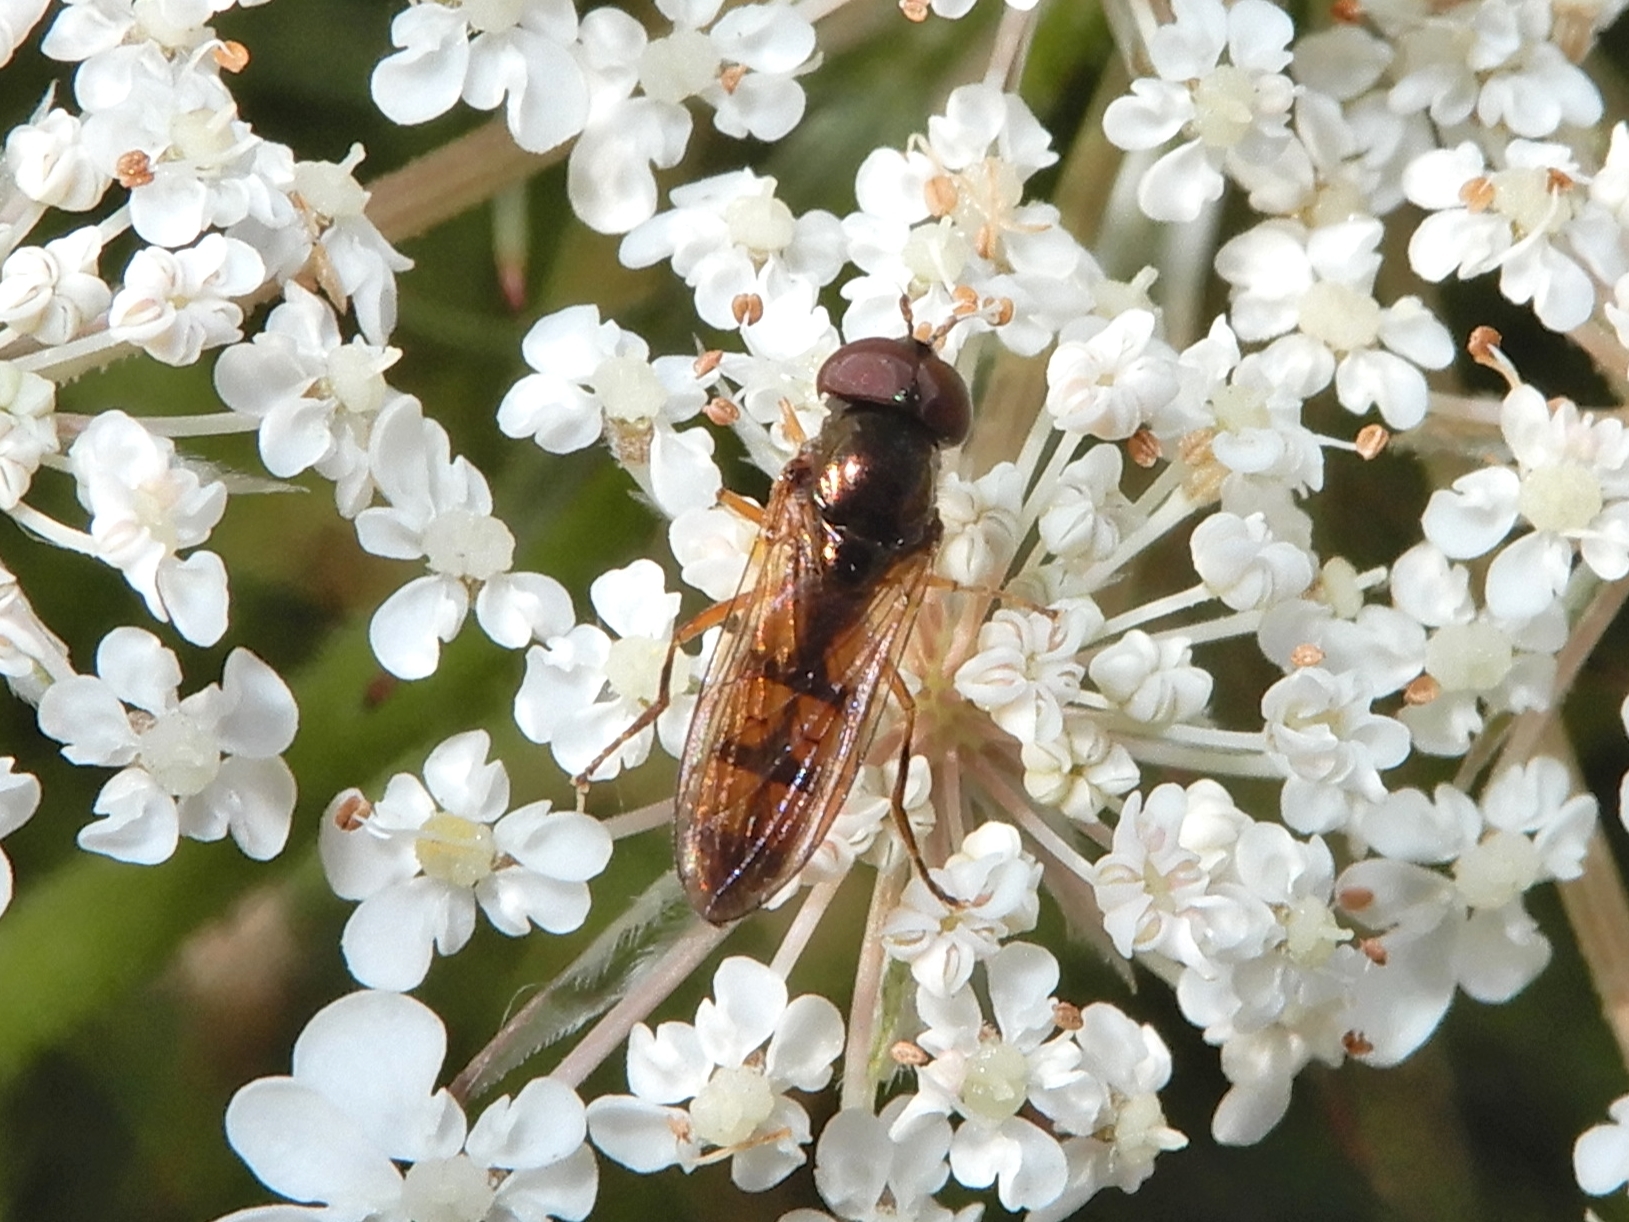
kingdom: Animalia
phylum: Arthropoda
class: Insecta
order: Diptera
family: Syrphidae
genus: Melanostoma
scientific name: Melanostoma fasciatum
